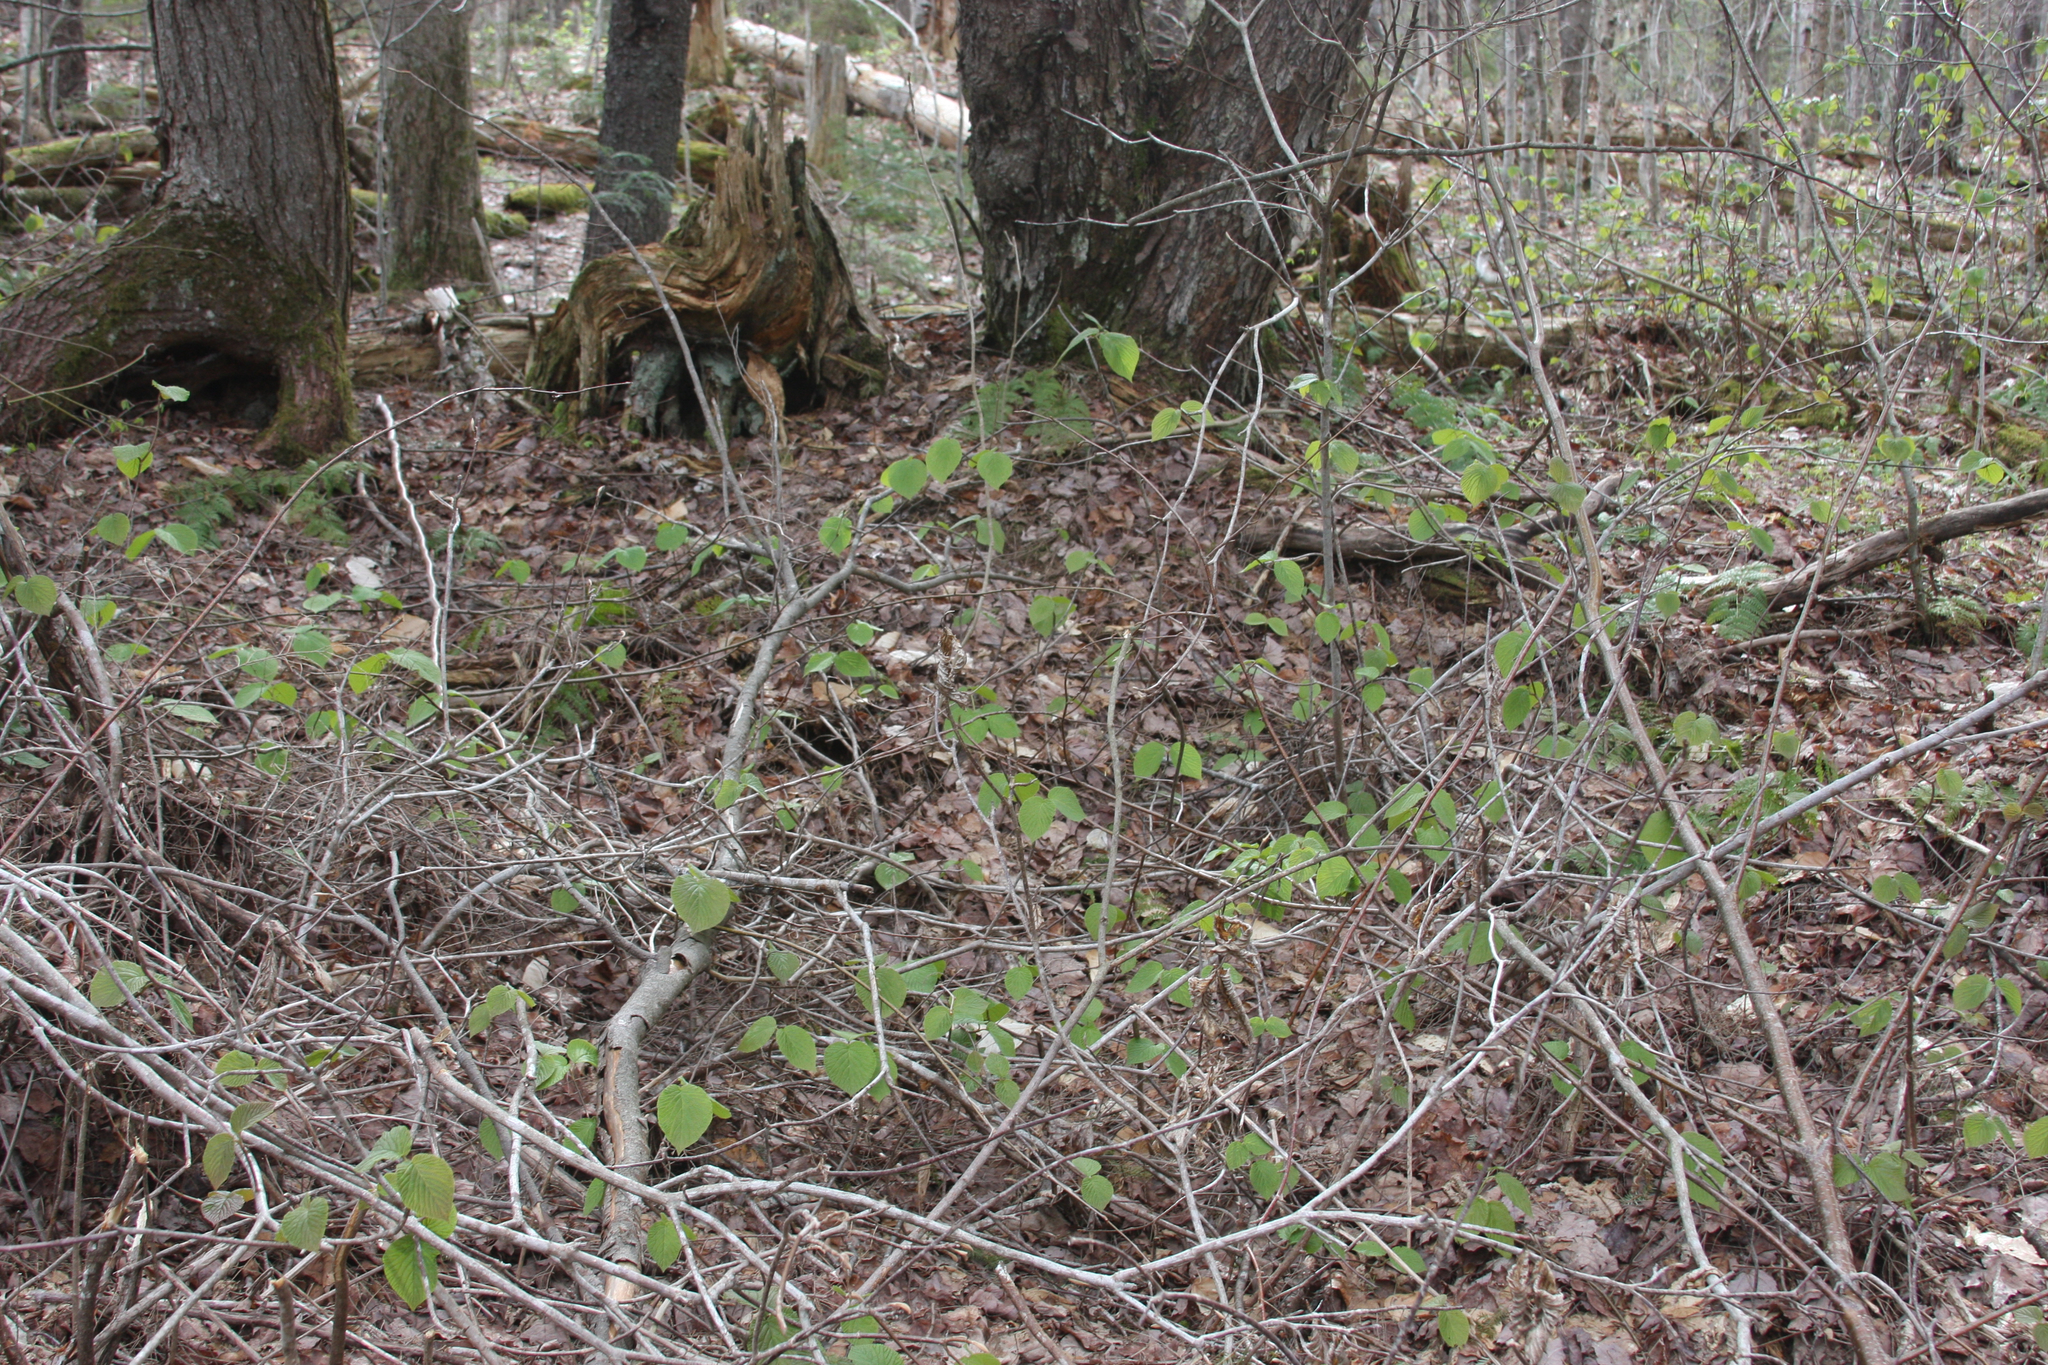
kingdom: Plantae
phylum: Tracheophyta
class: Magnoliopsida
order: Dipsacales
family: Viburnaceae
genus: Viburnum
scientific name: Viburnum lantanoides
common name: Hobblebush
